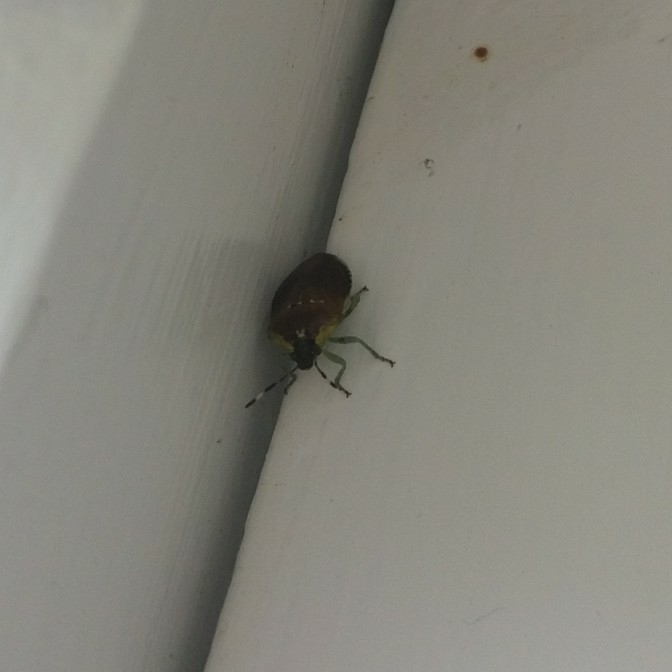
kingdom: Animalia
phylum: Arthropoda
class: Insecta
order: Hemiptera
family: Pentatomidae
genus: Monteithiella
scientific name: Monteithiella
